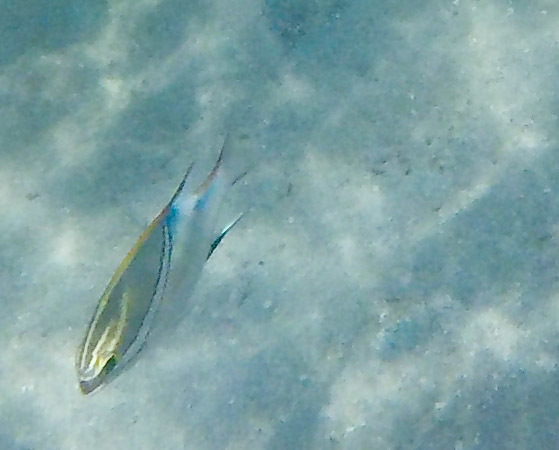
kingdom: Animalia
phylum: Chordata
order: Perciformes
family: Nemipteridae
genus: Scolopsis
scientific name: Scolopsis bilineata
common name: Two-lined monocle bream
